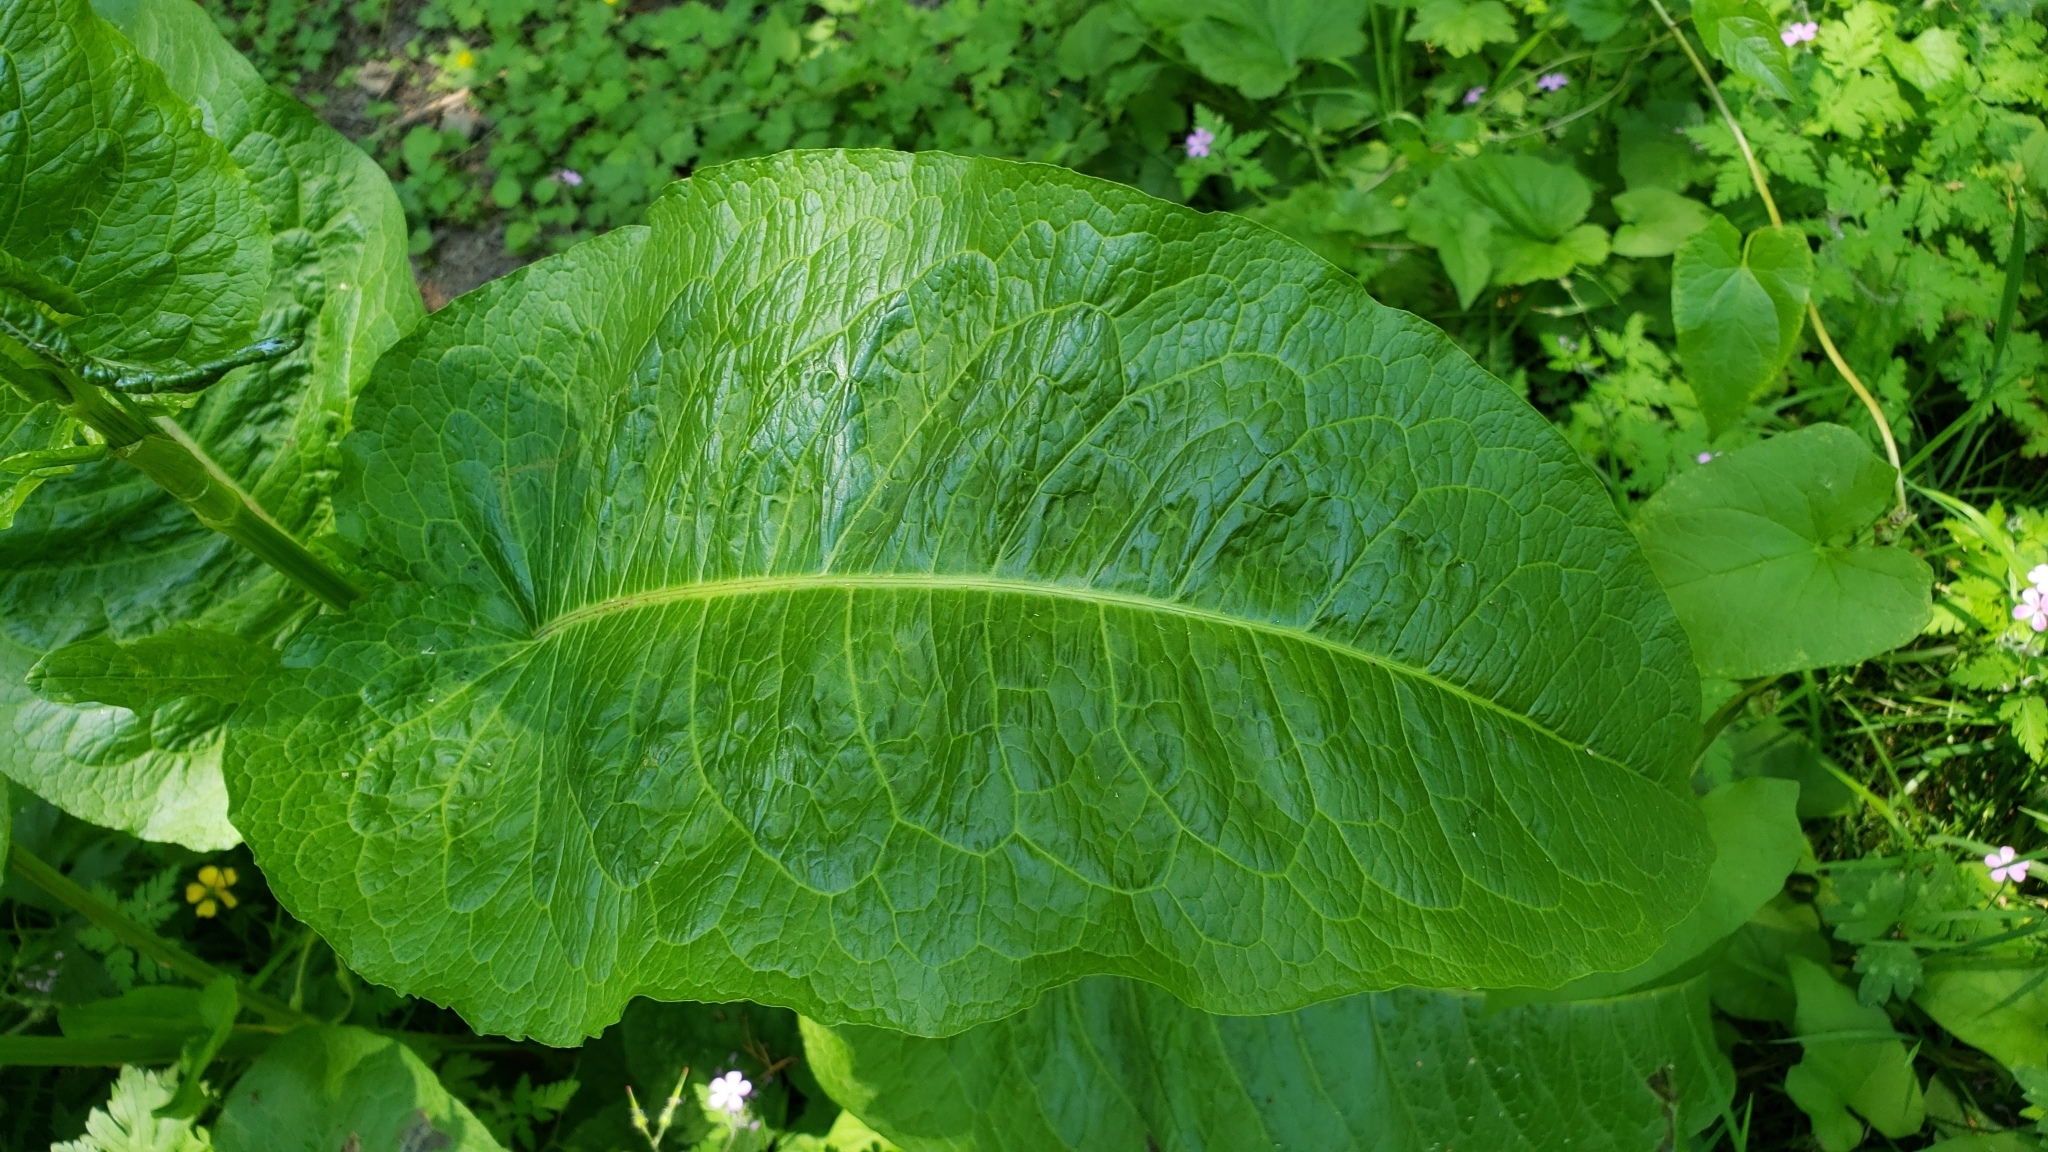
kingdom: Plantae
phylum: Tracheophyta
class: Magnoliopsida
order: Caryophyllales
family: Polygonaceae
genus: Rumex
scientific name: Rumex obtusifolius
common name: Bitter dock
